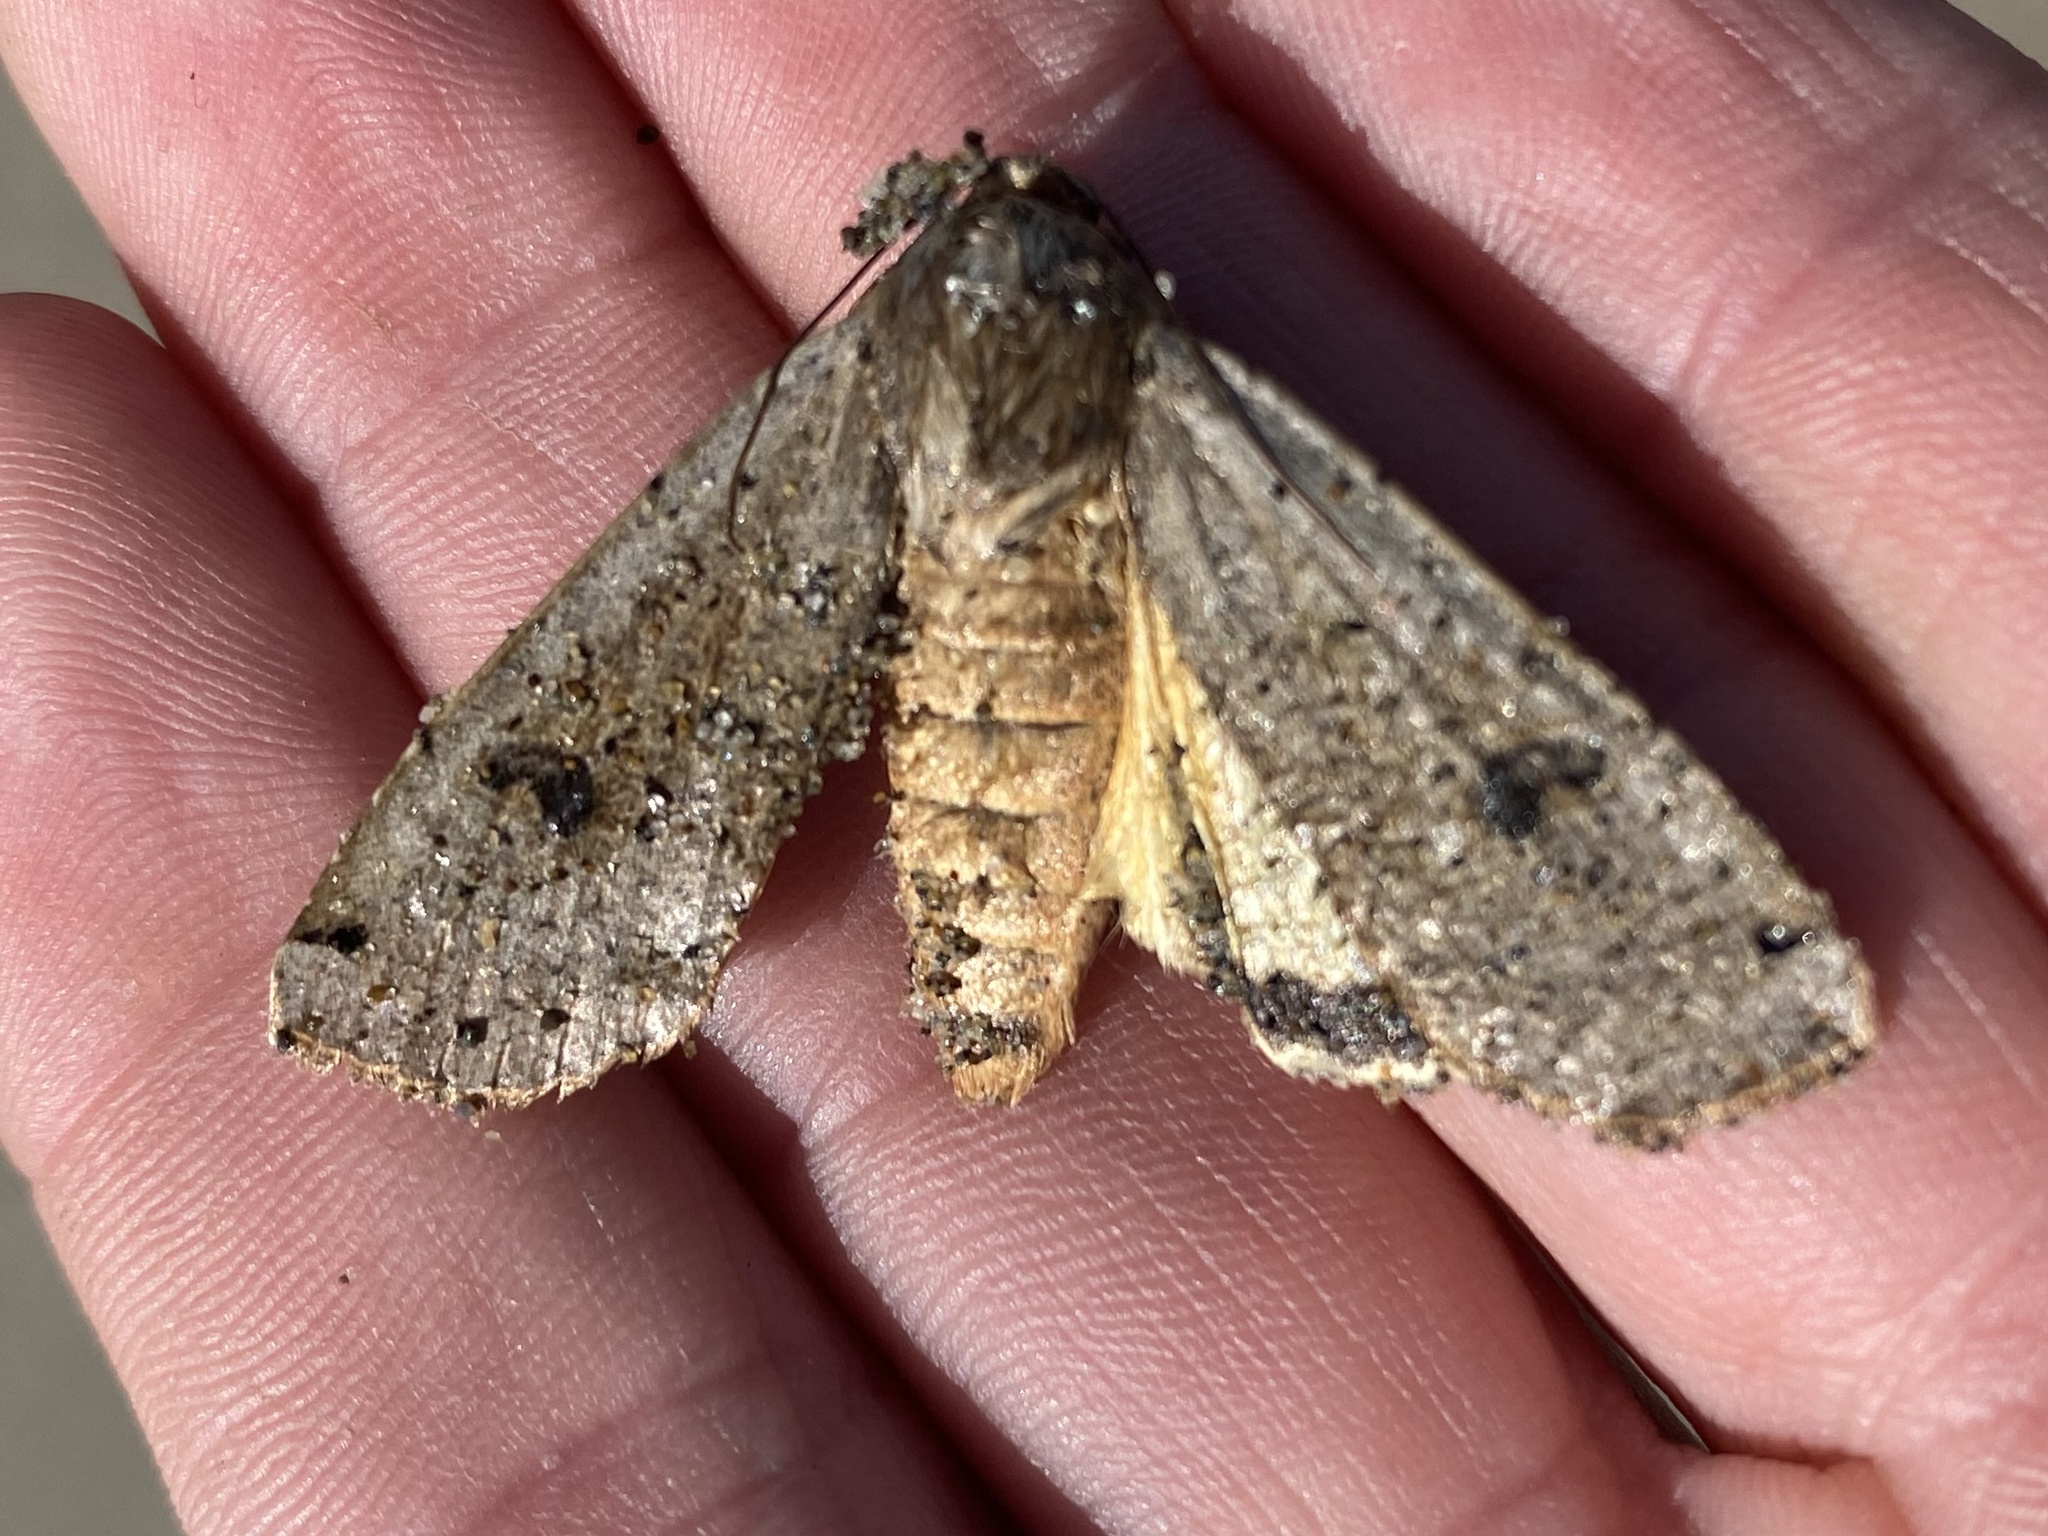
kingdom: Animalia
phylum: Arthropoda
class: Insecta
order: Lepidoptera
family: Noctuidae
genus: Noctua
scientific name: Noctua pronuba
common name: Large yellow underwing
